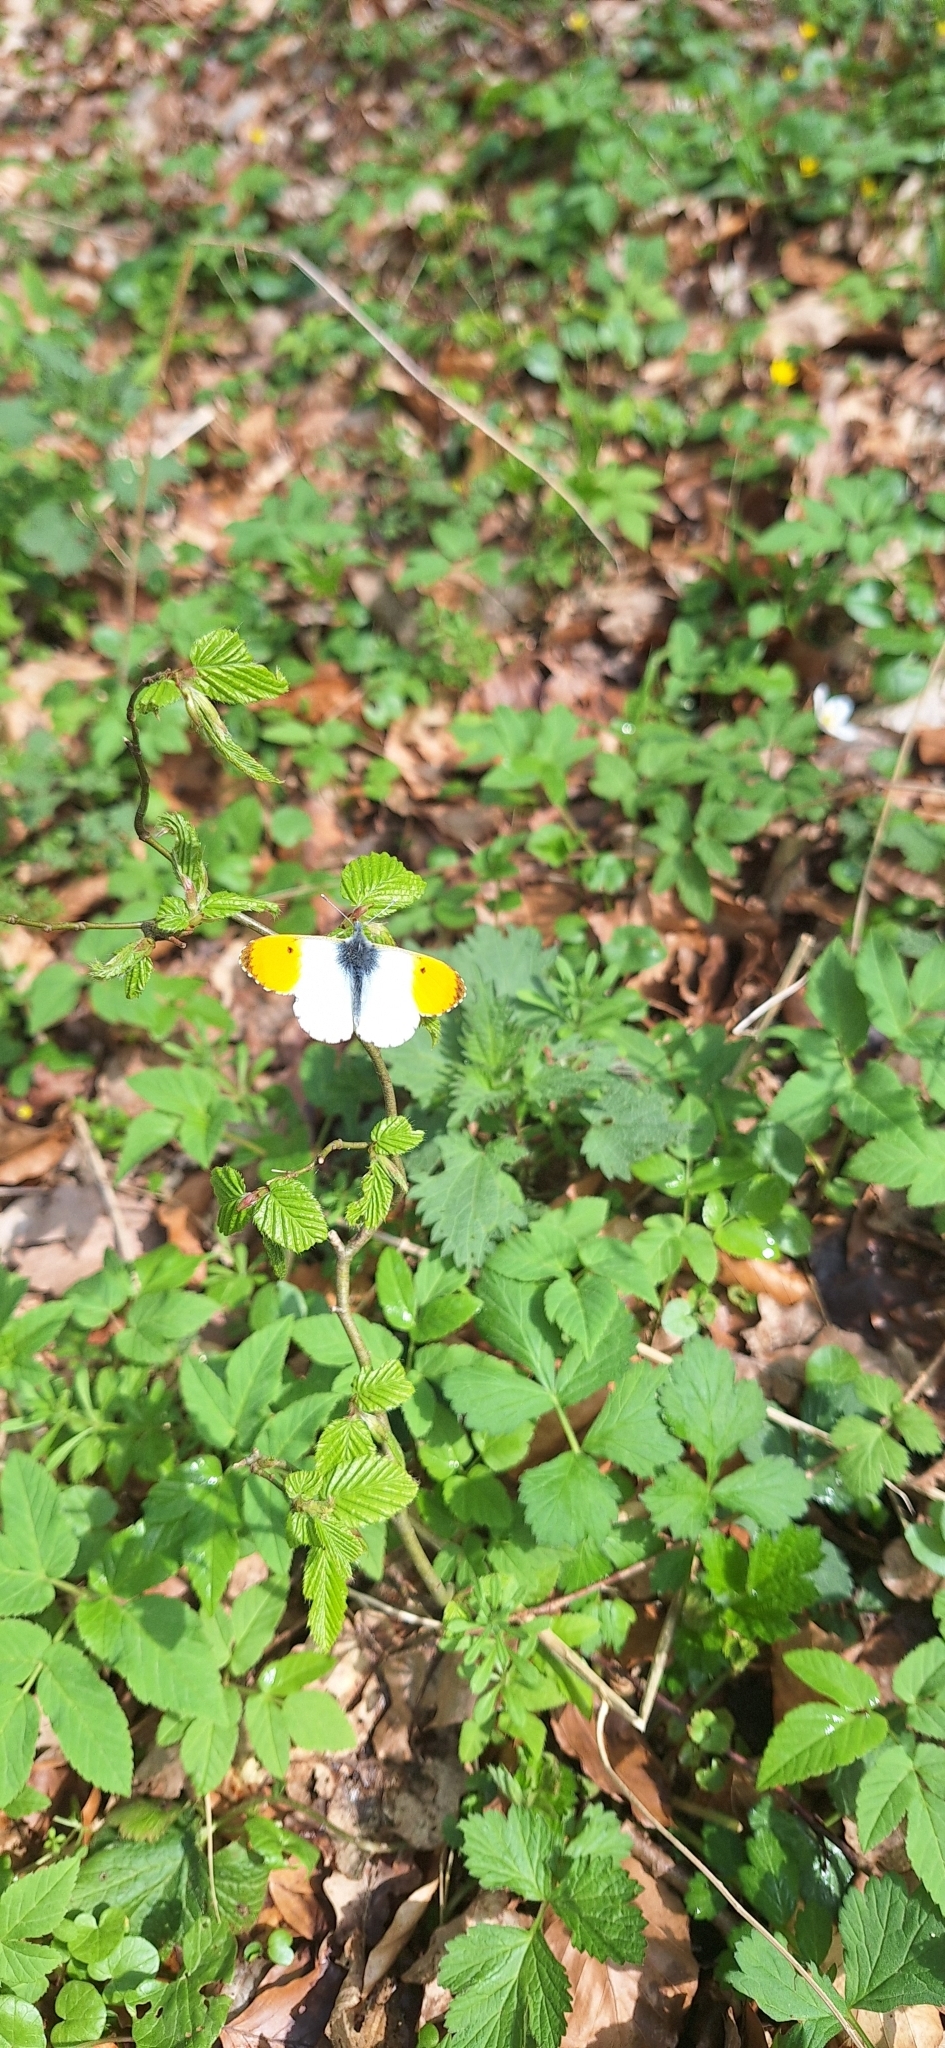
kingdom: Animalia
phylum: Arthropoda
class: Insecta
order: Lepidoptera
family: Pieridae
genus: Anthocharis
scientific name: Anthocharis cardamines
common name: Orange-tip
